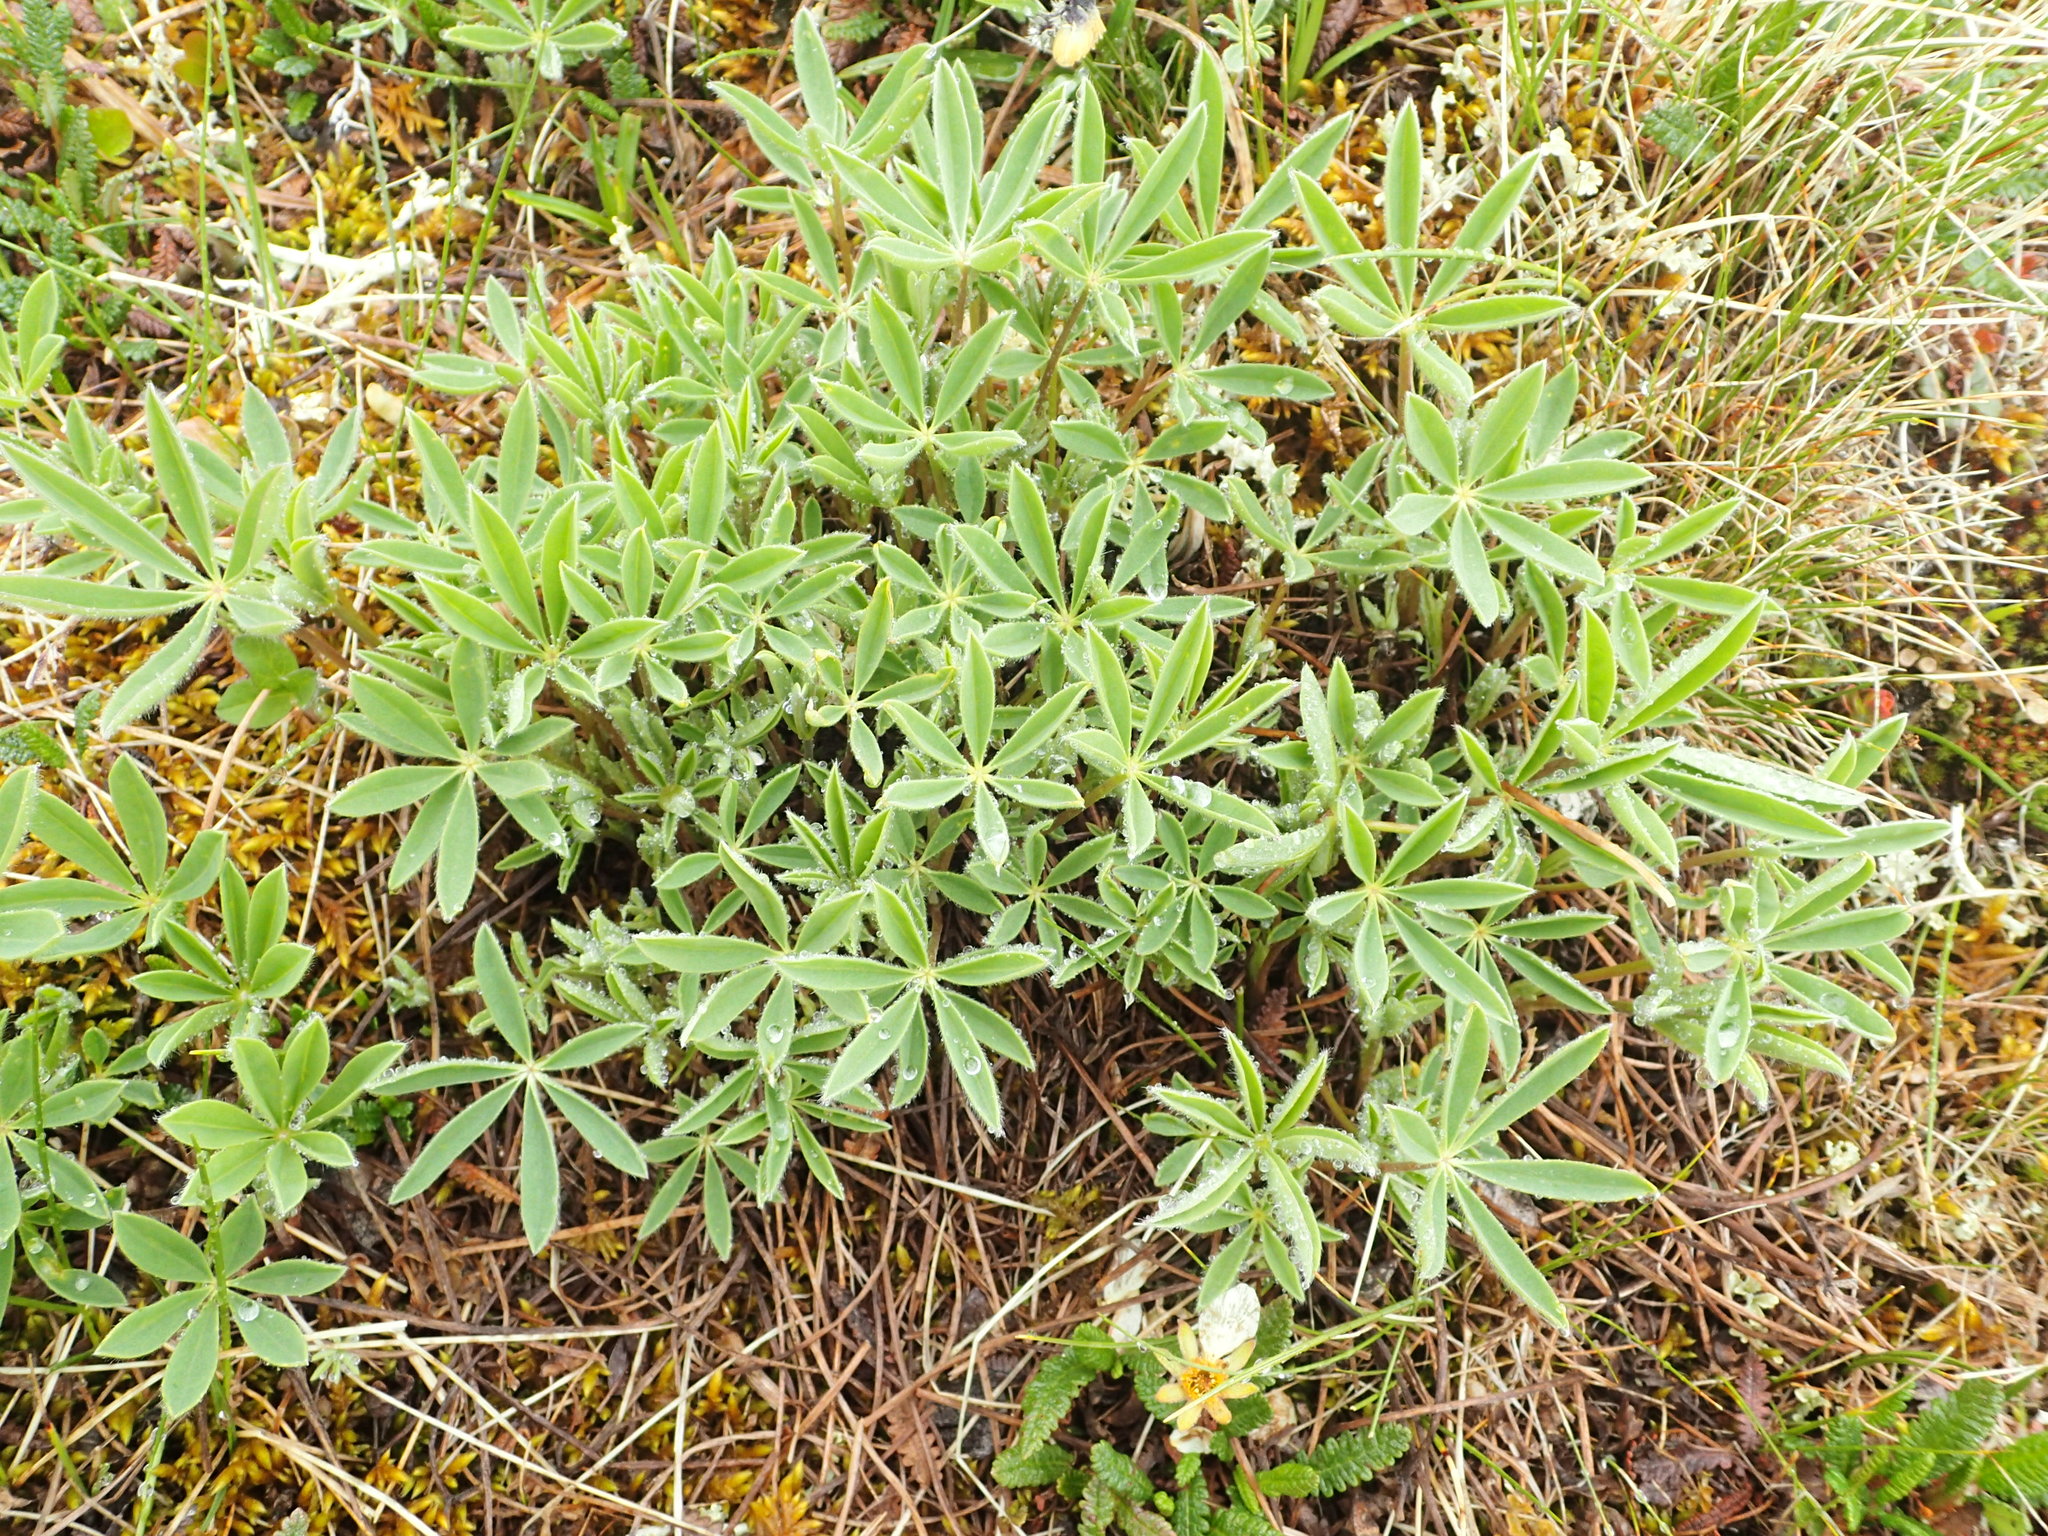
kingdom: Plantae
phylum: Tracheophyta
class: Magnoliopsida
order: Fabales
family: Fabaceae
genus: Lupinus
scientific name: Lupinus arcticus
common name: Arctic lupine
